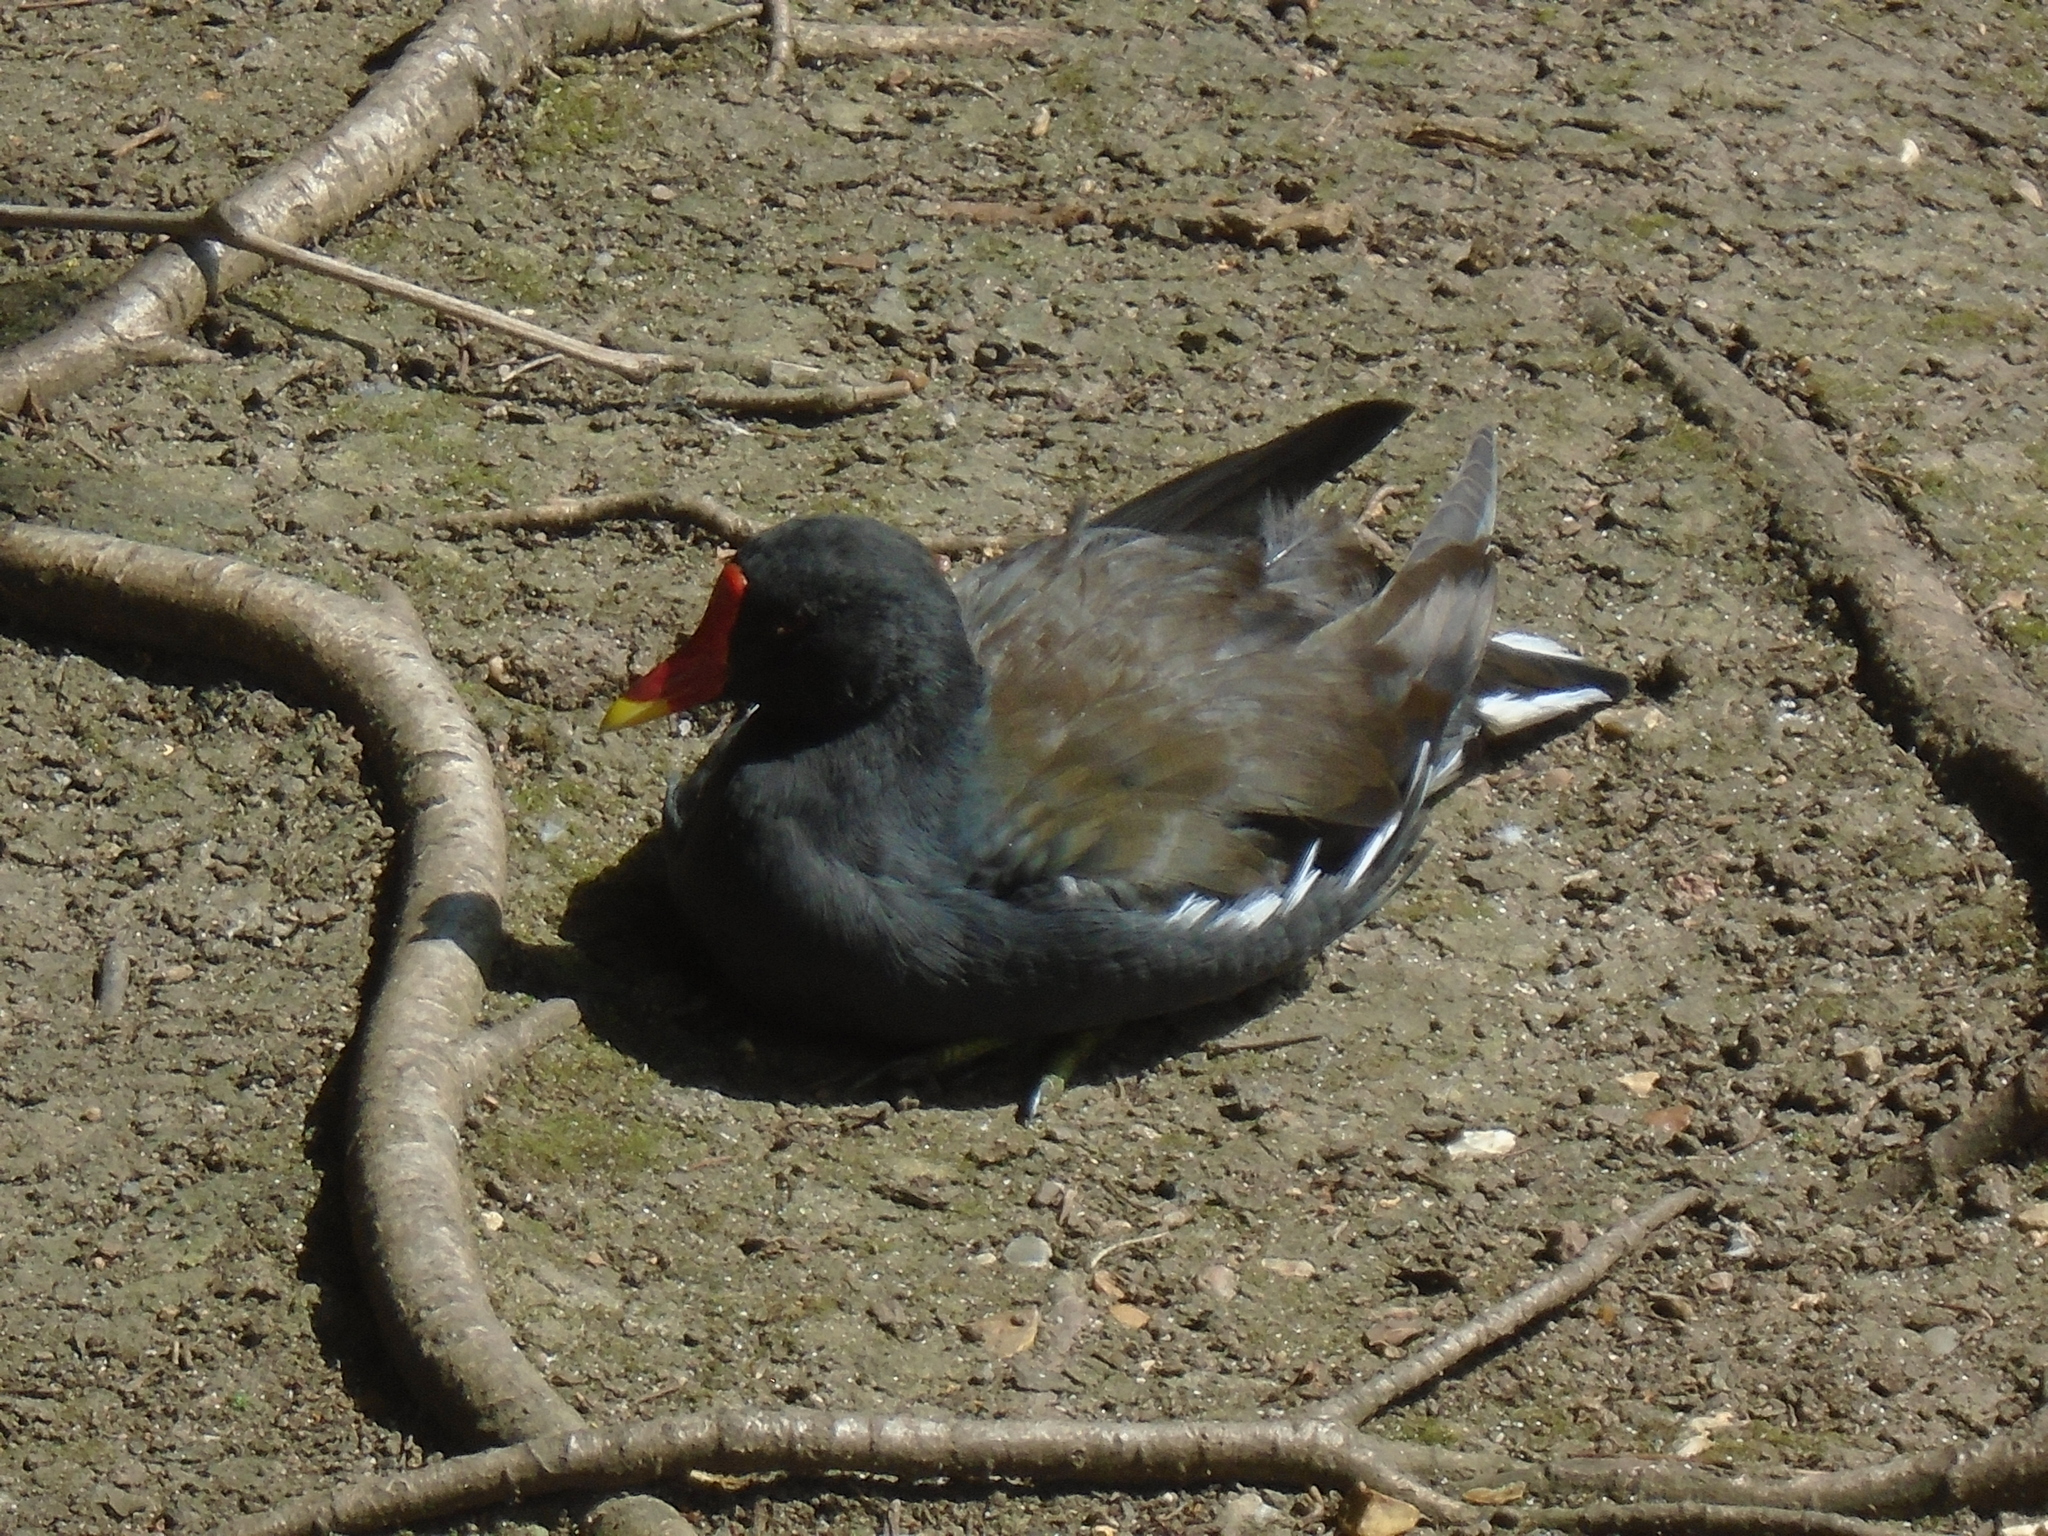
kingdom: Animalia
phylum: Chordata
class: Aves
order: Gruiformes
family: Rallidae
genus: Gallinula
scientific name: Gallinula chloropus
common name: Common moorhen
